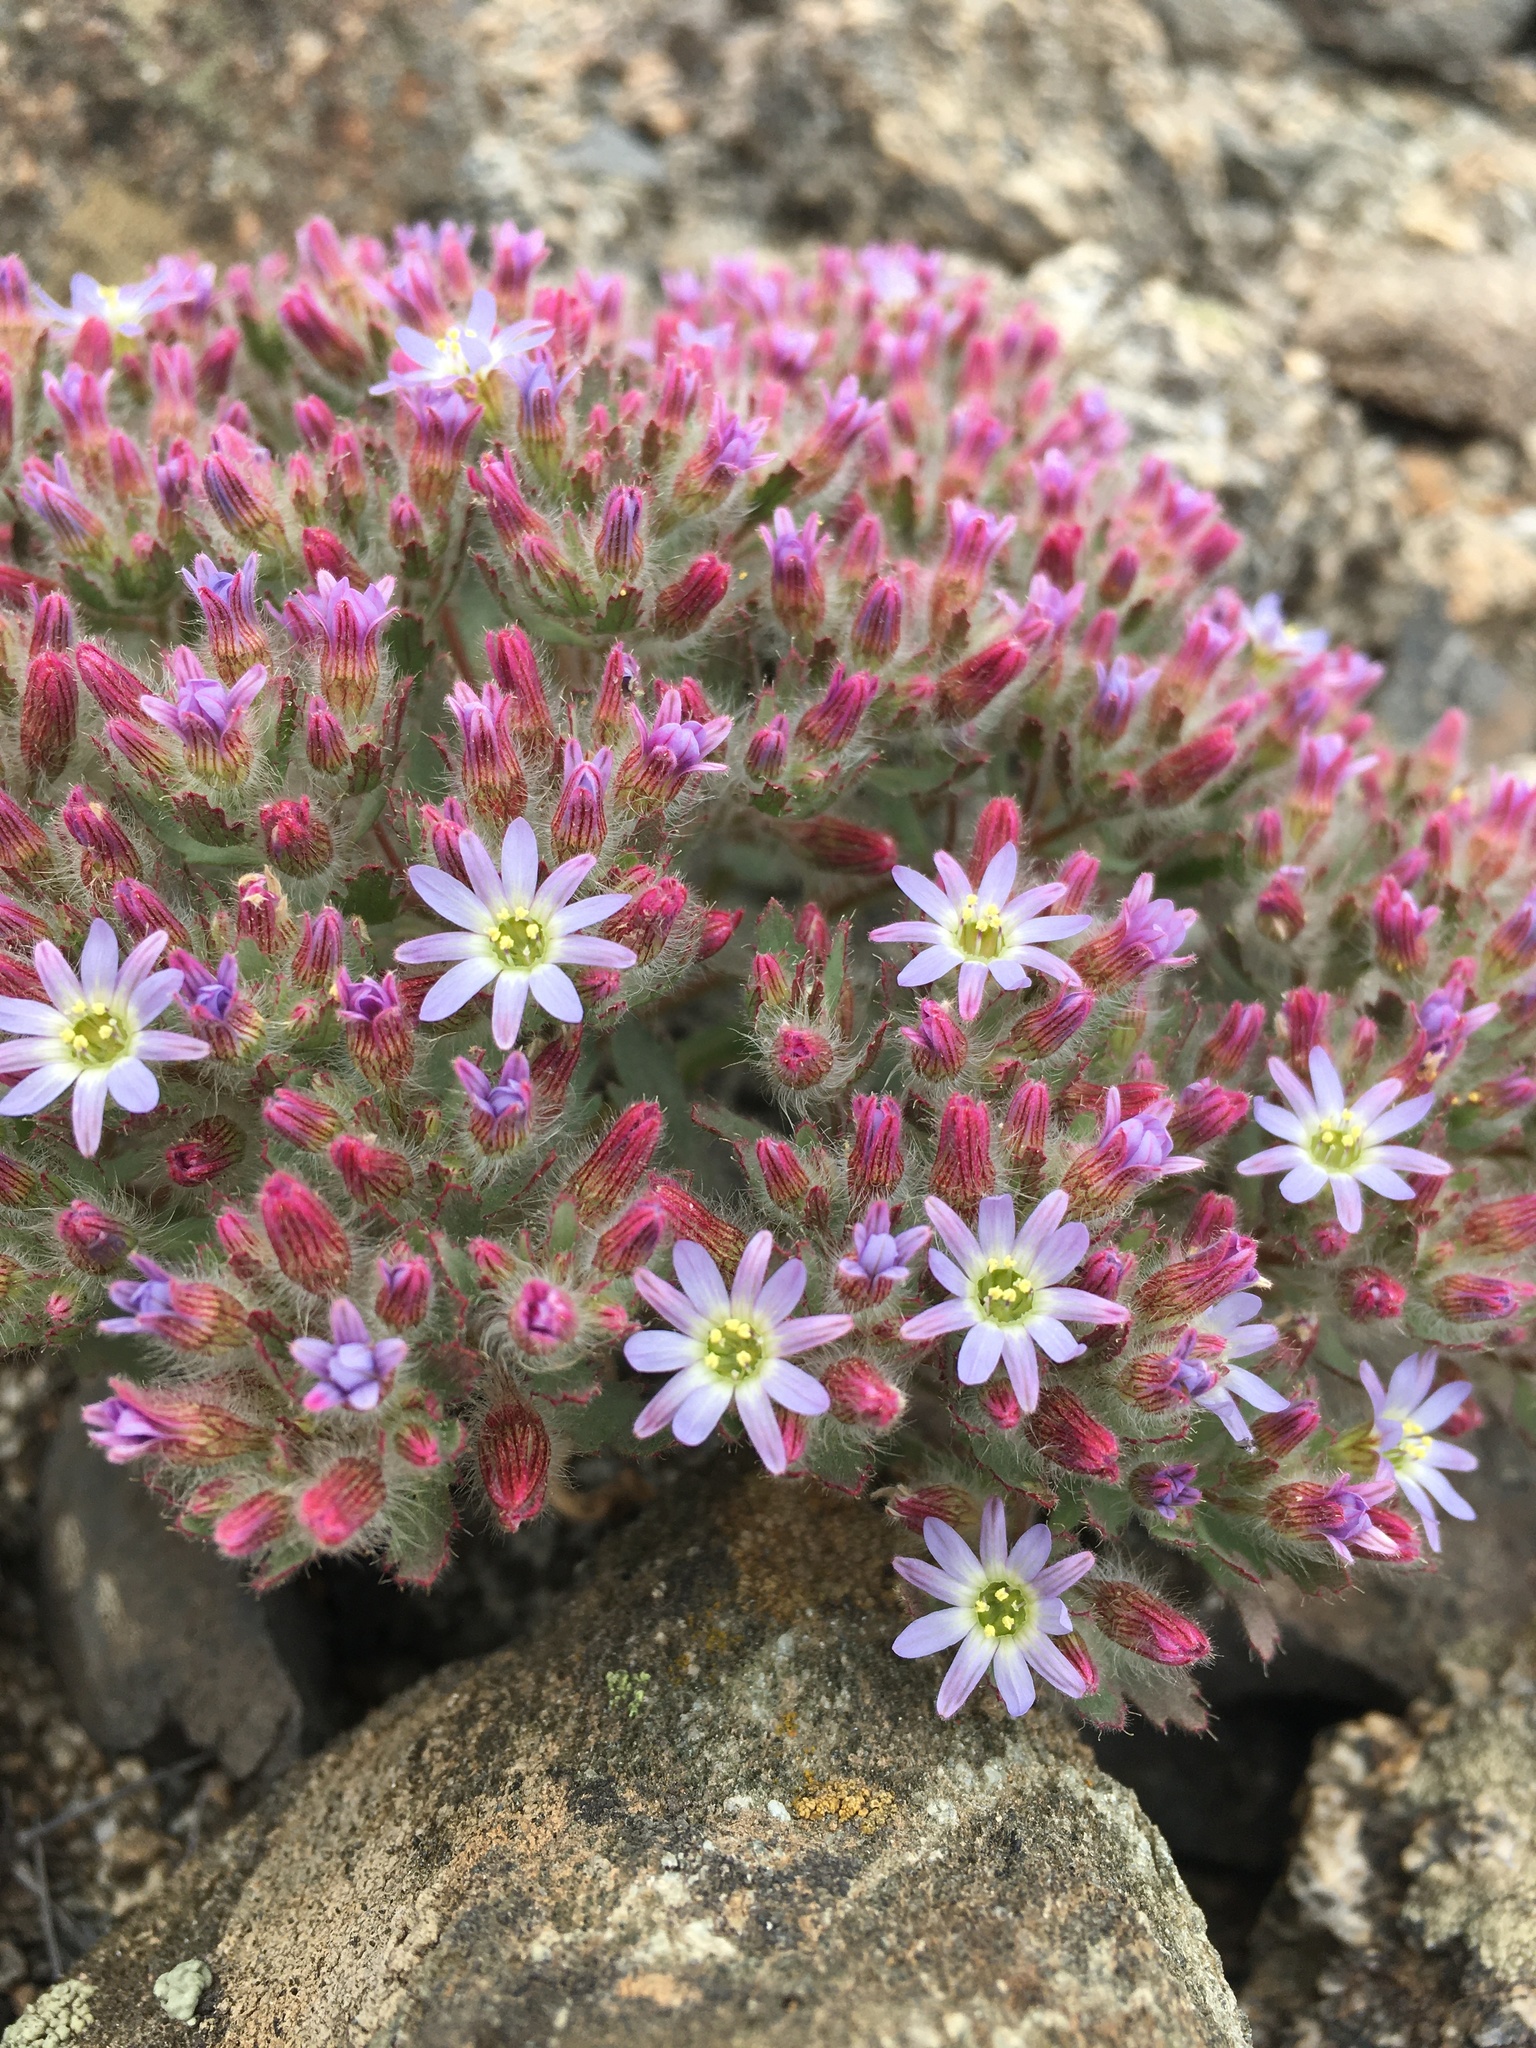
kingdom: Plantae
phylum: Tracheophyta
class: Magnoliopsida
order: Malpighiales
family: Malesherbiaceae
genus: Malesherbia
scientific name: Malesherbia humilis
